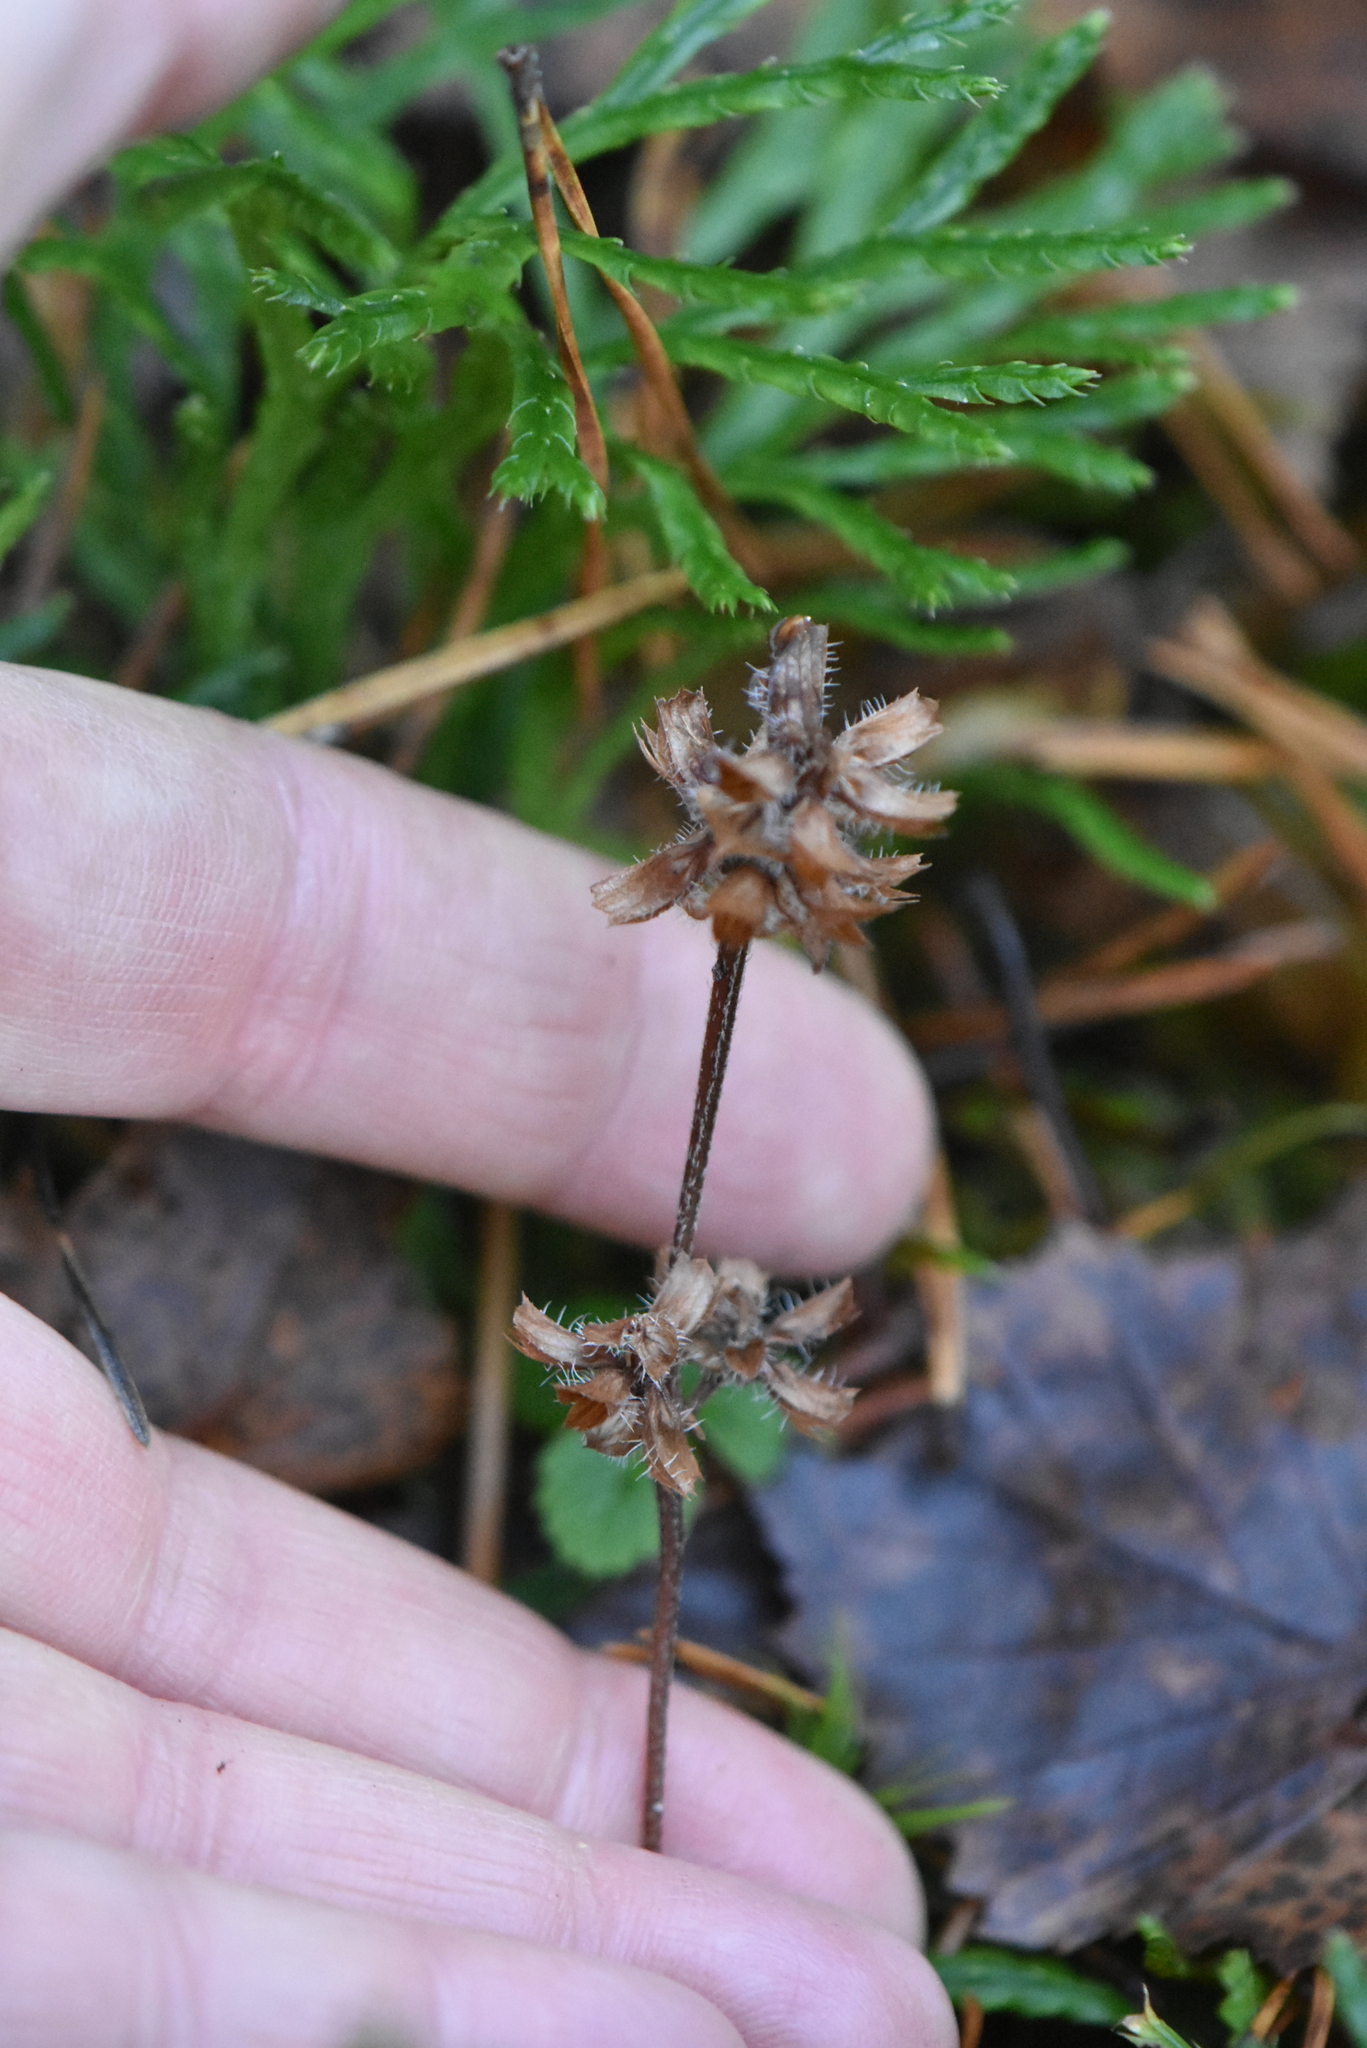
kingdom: Plantae
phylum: Tracheophyta
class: Magnoliopsida
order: Lamiales
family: Lamiaceae
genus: Prunella
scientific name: Prunella vulgaris
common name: Heal-all
